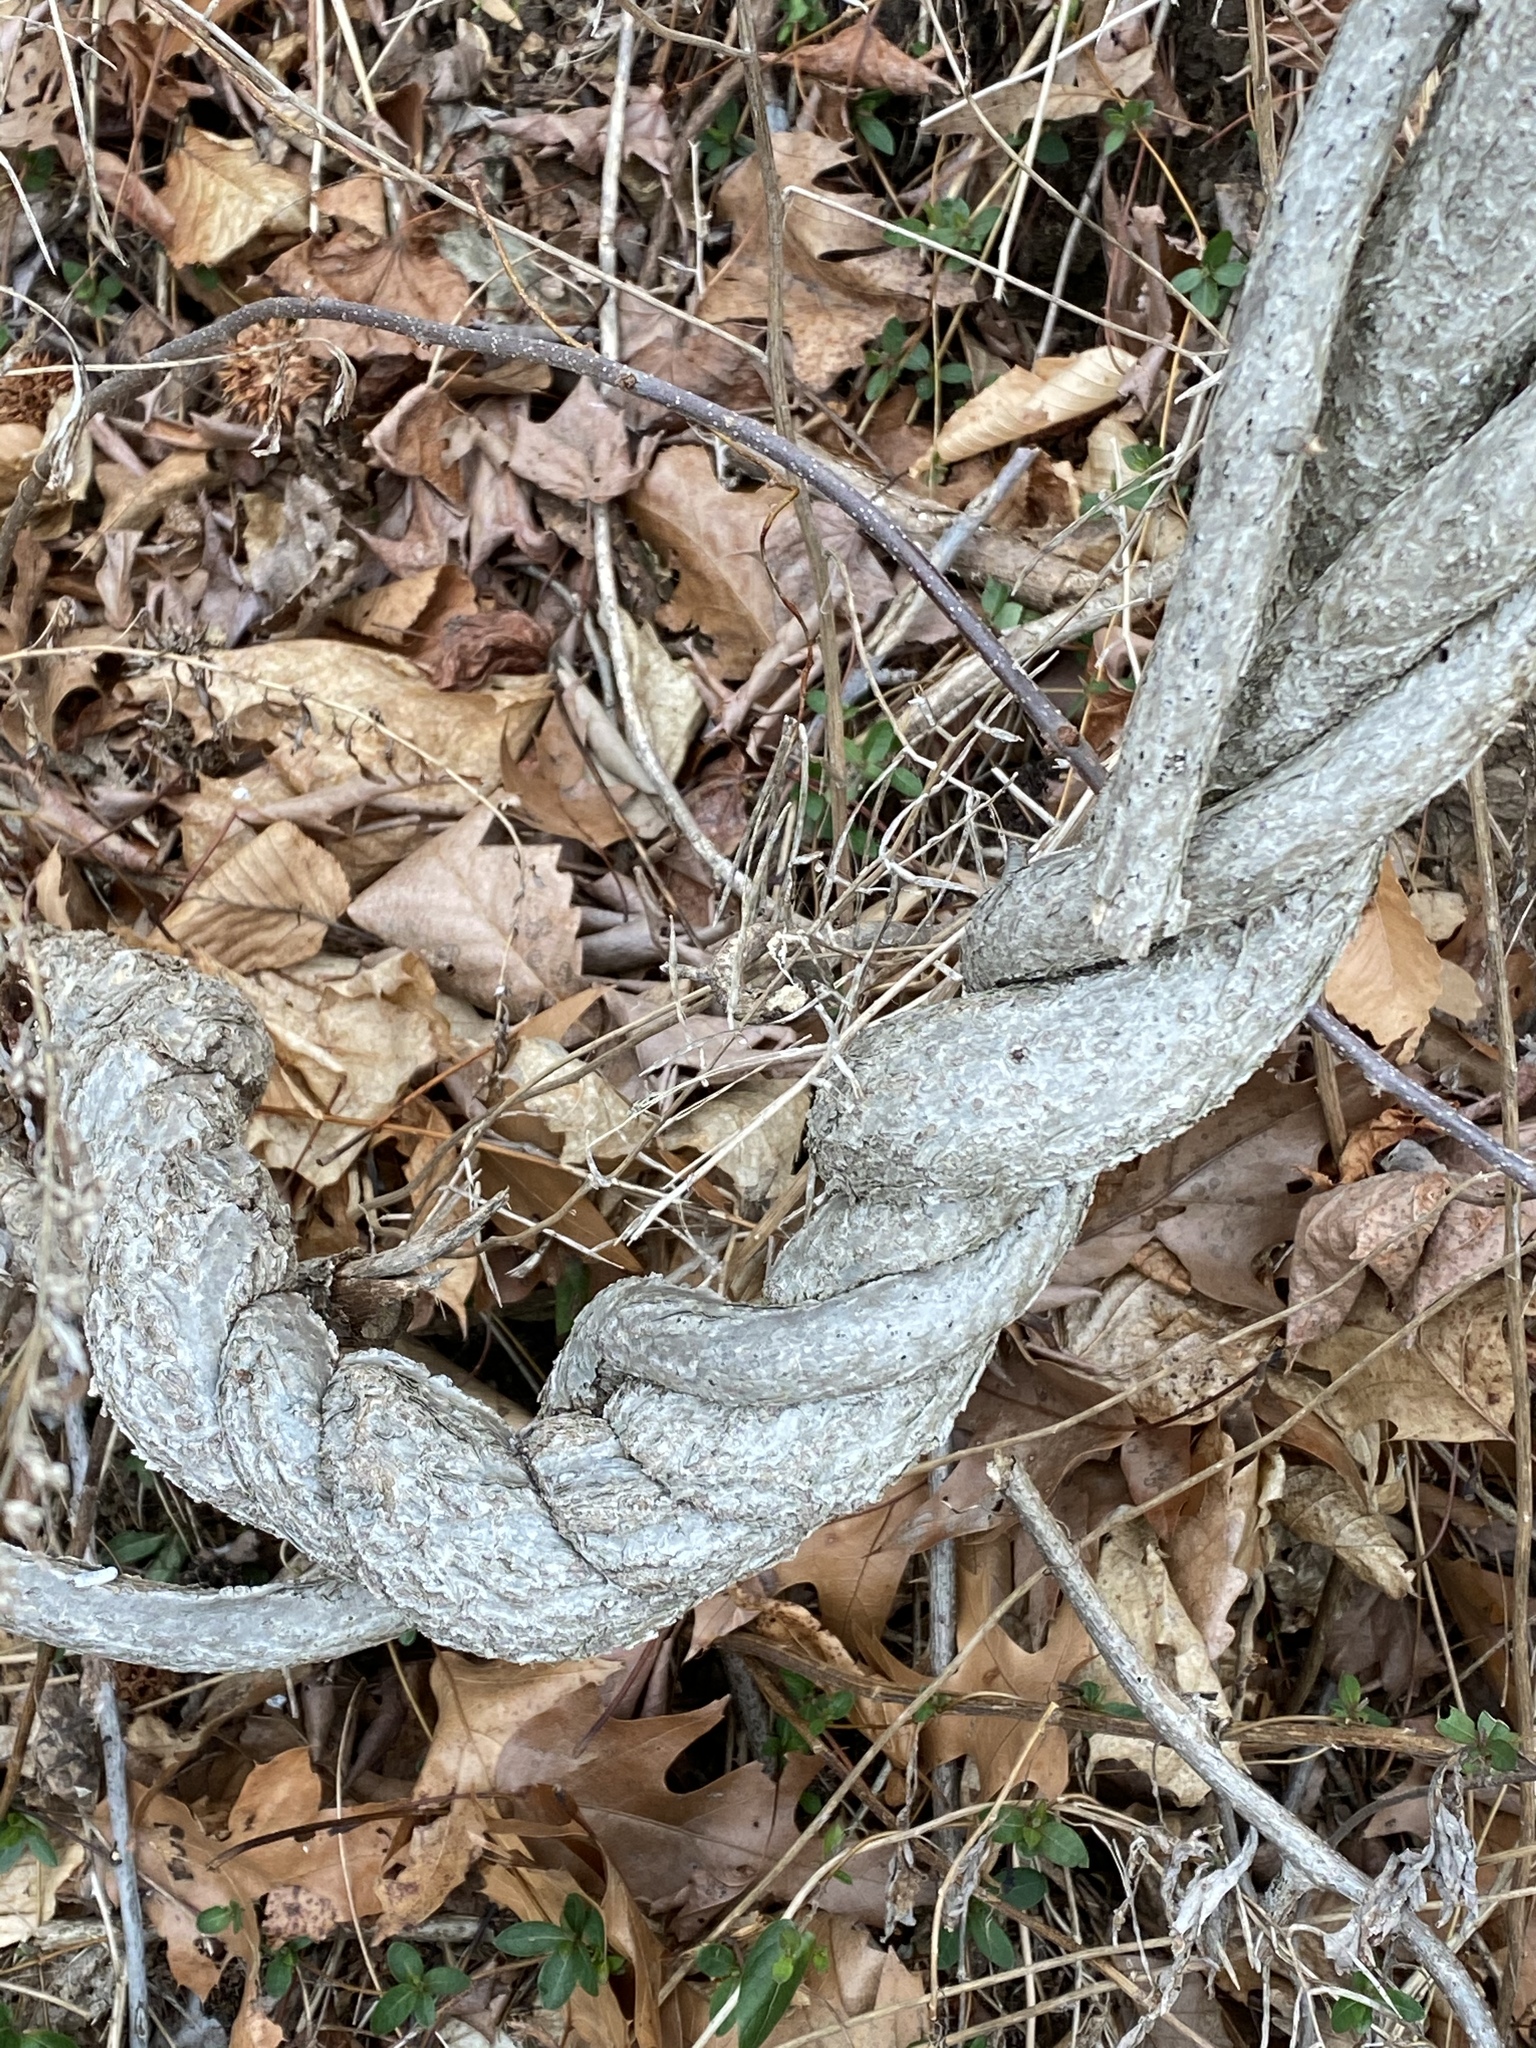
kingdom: Plantae
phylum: Tracheophyta
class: Magnoliopsida
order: Celastrales
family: Celastraceae
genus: Celastrus
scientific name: Celastrus orbiculatus
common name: Oriental bittersweet
